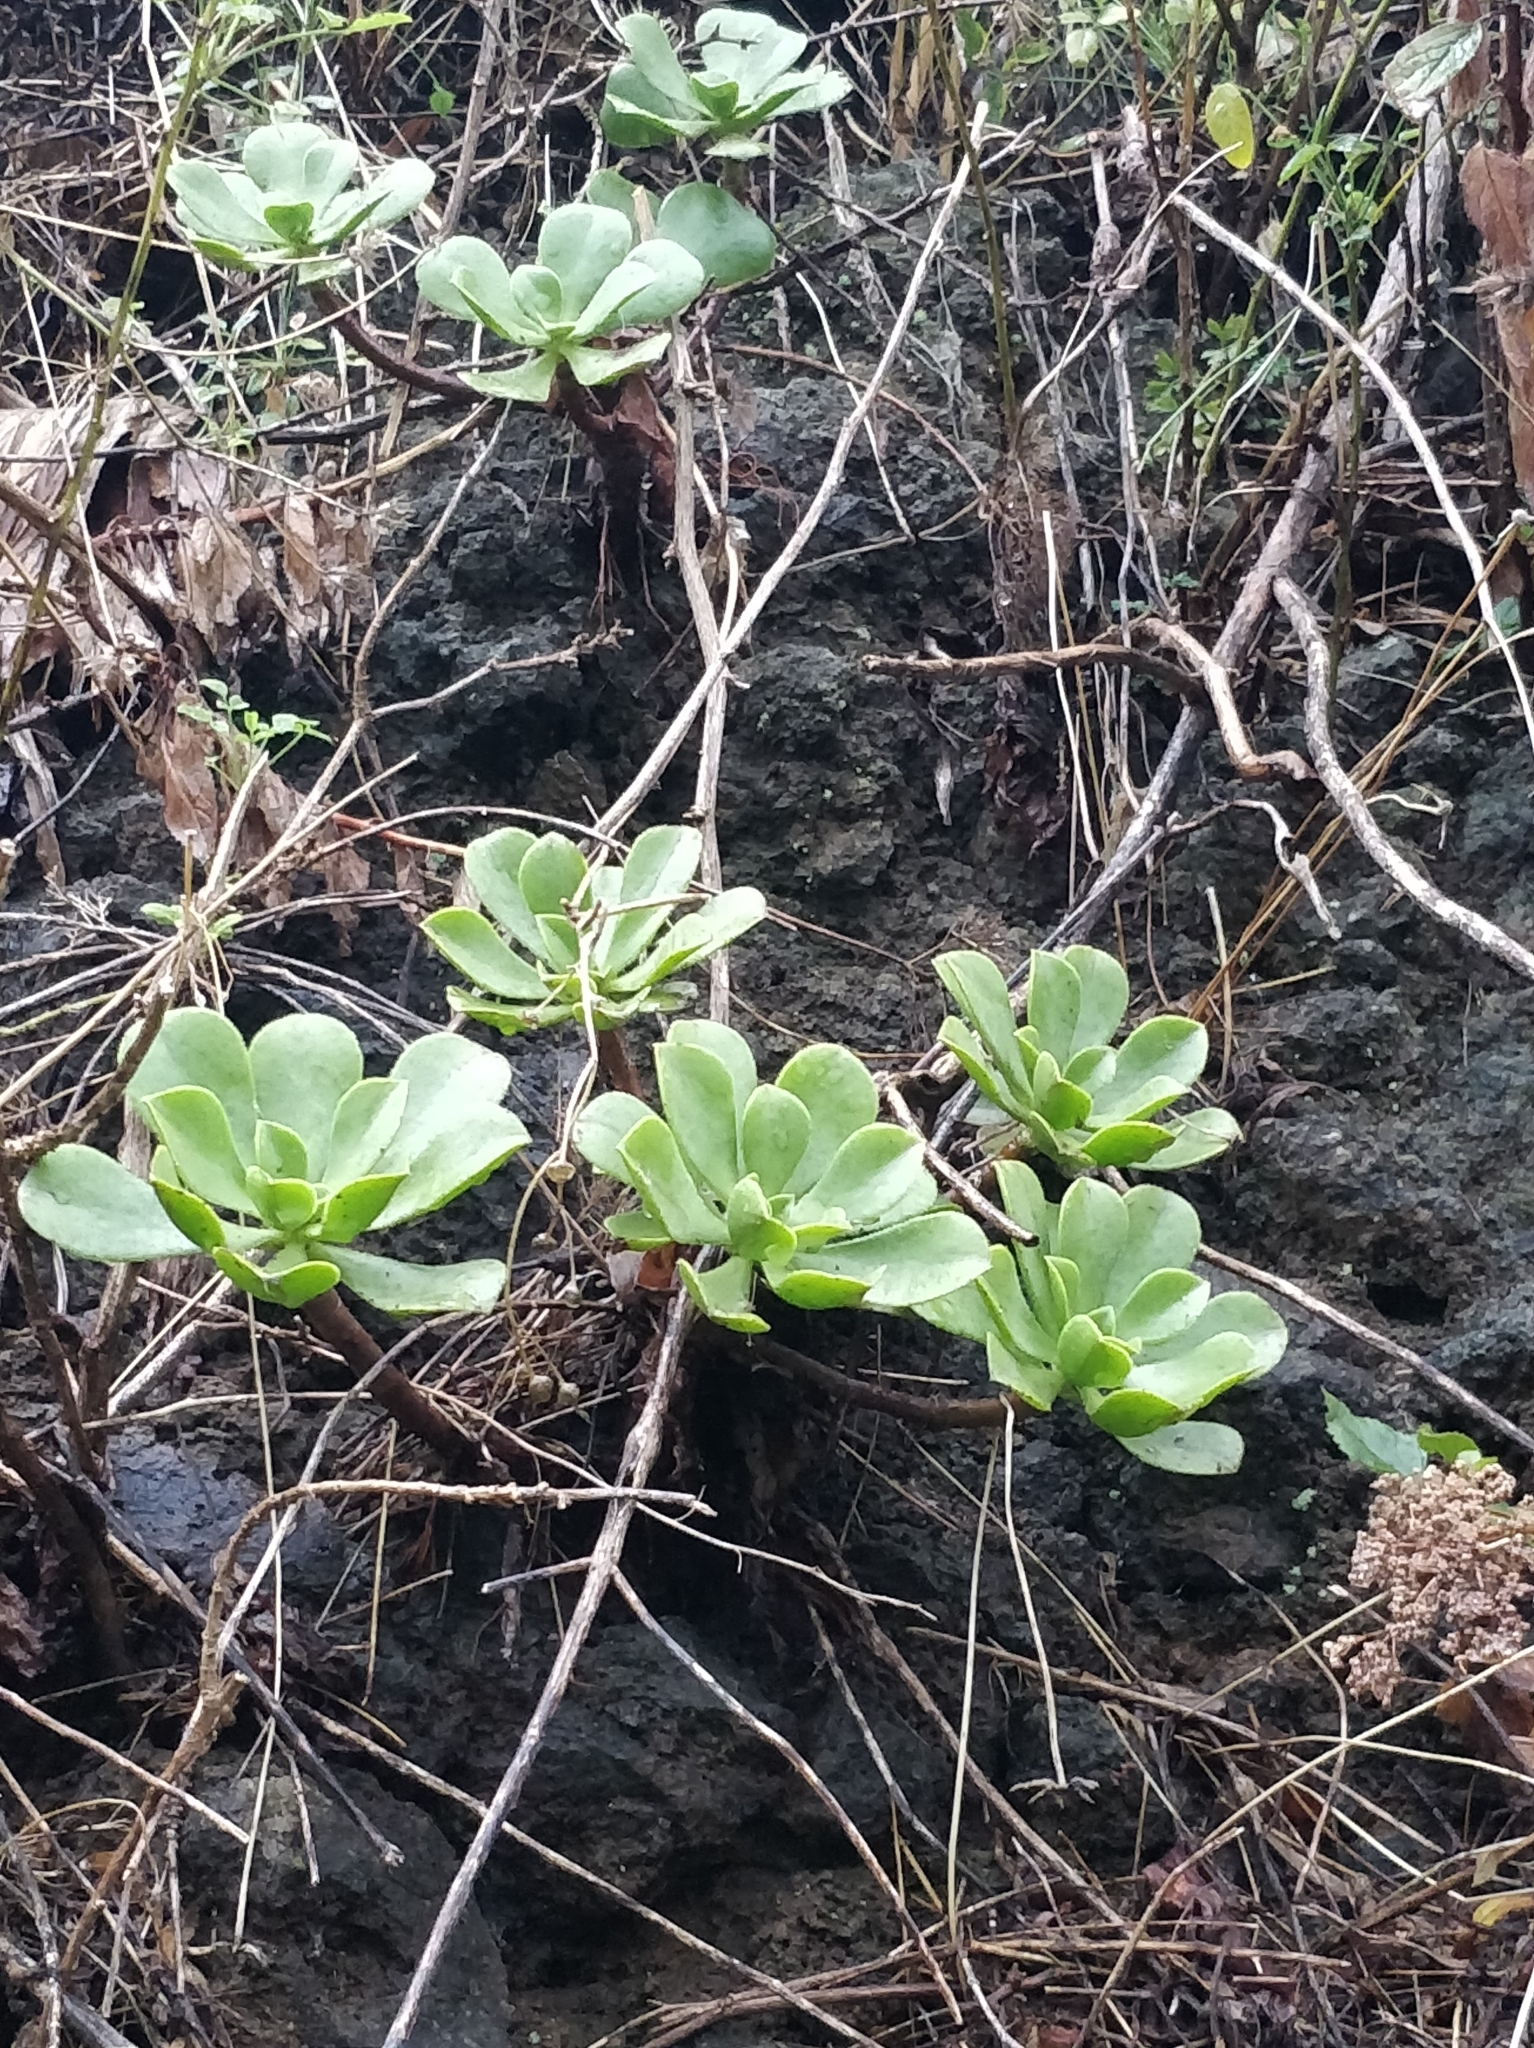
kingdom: Plantae
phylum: Tracheophyta
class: Magnoliopsida
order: Saxifragales
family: Crassulaceae
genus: Aeonium
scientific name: Aeonium glutinosum
